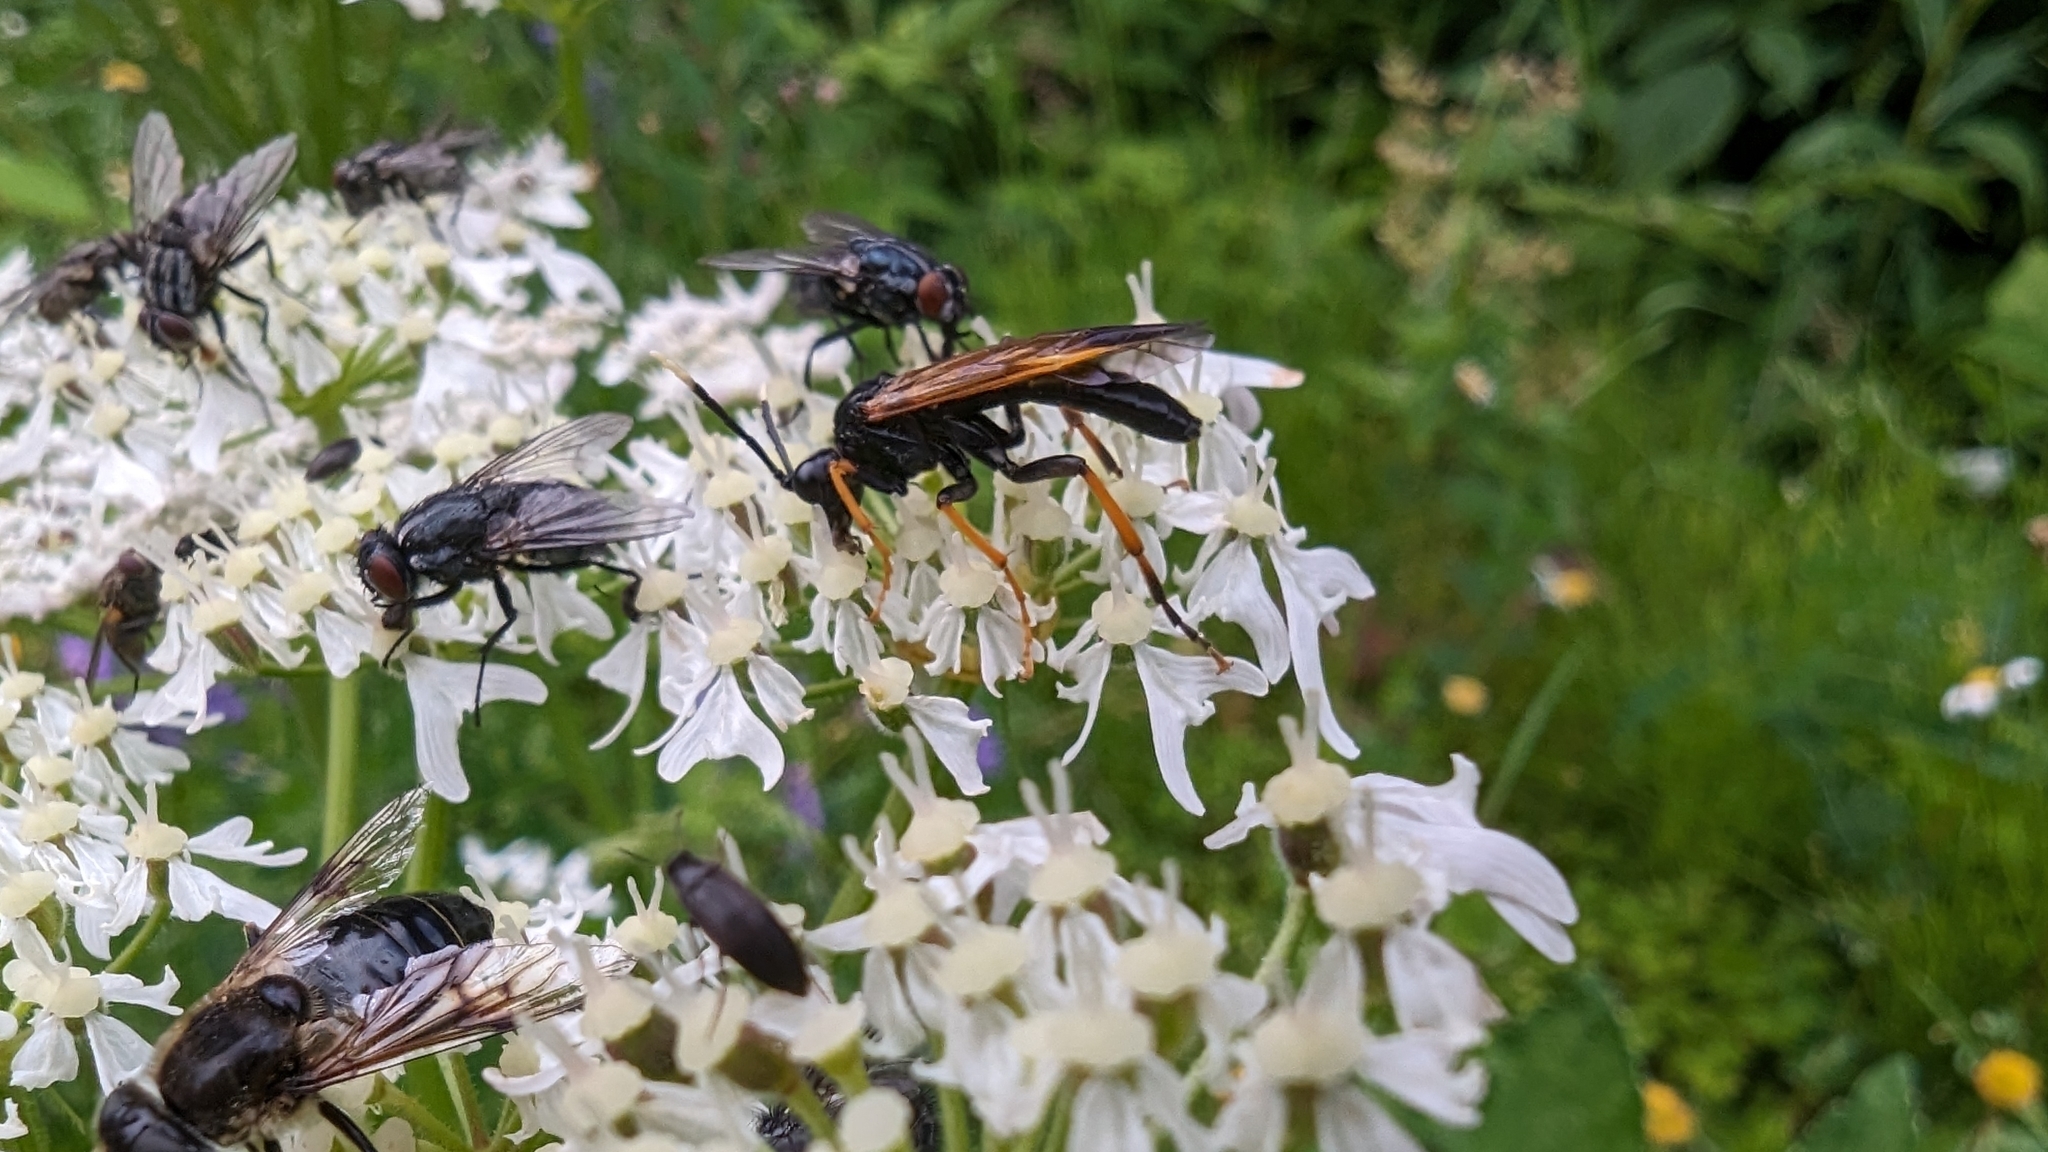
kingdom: Animalia
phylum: Arthropoda
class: Insecta
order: Hymenoptera
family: Tenthredinidae
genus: Tenthredo
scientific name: Tenthredo crassa
